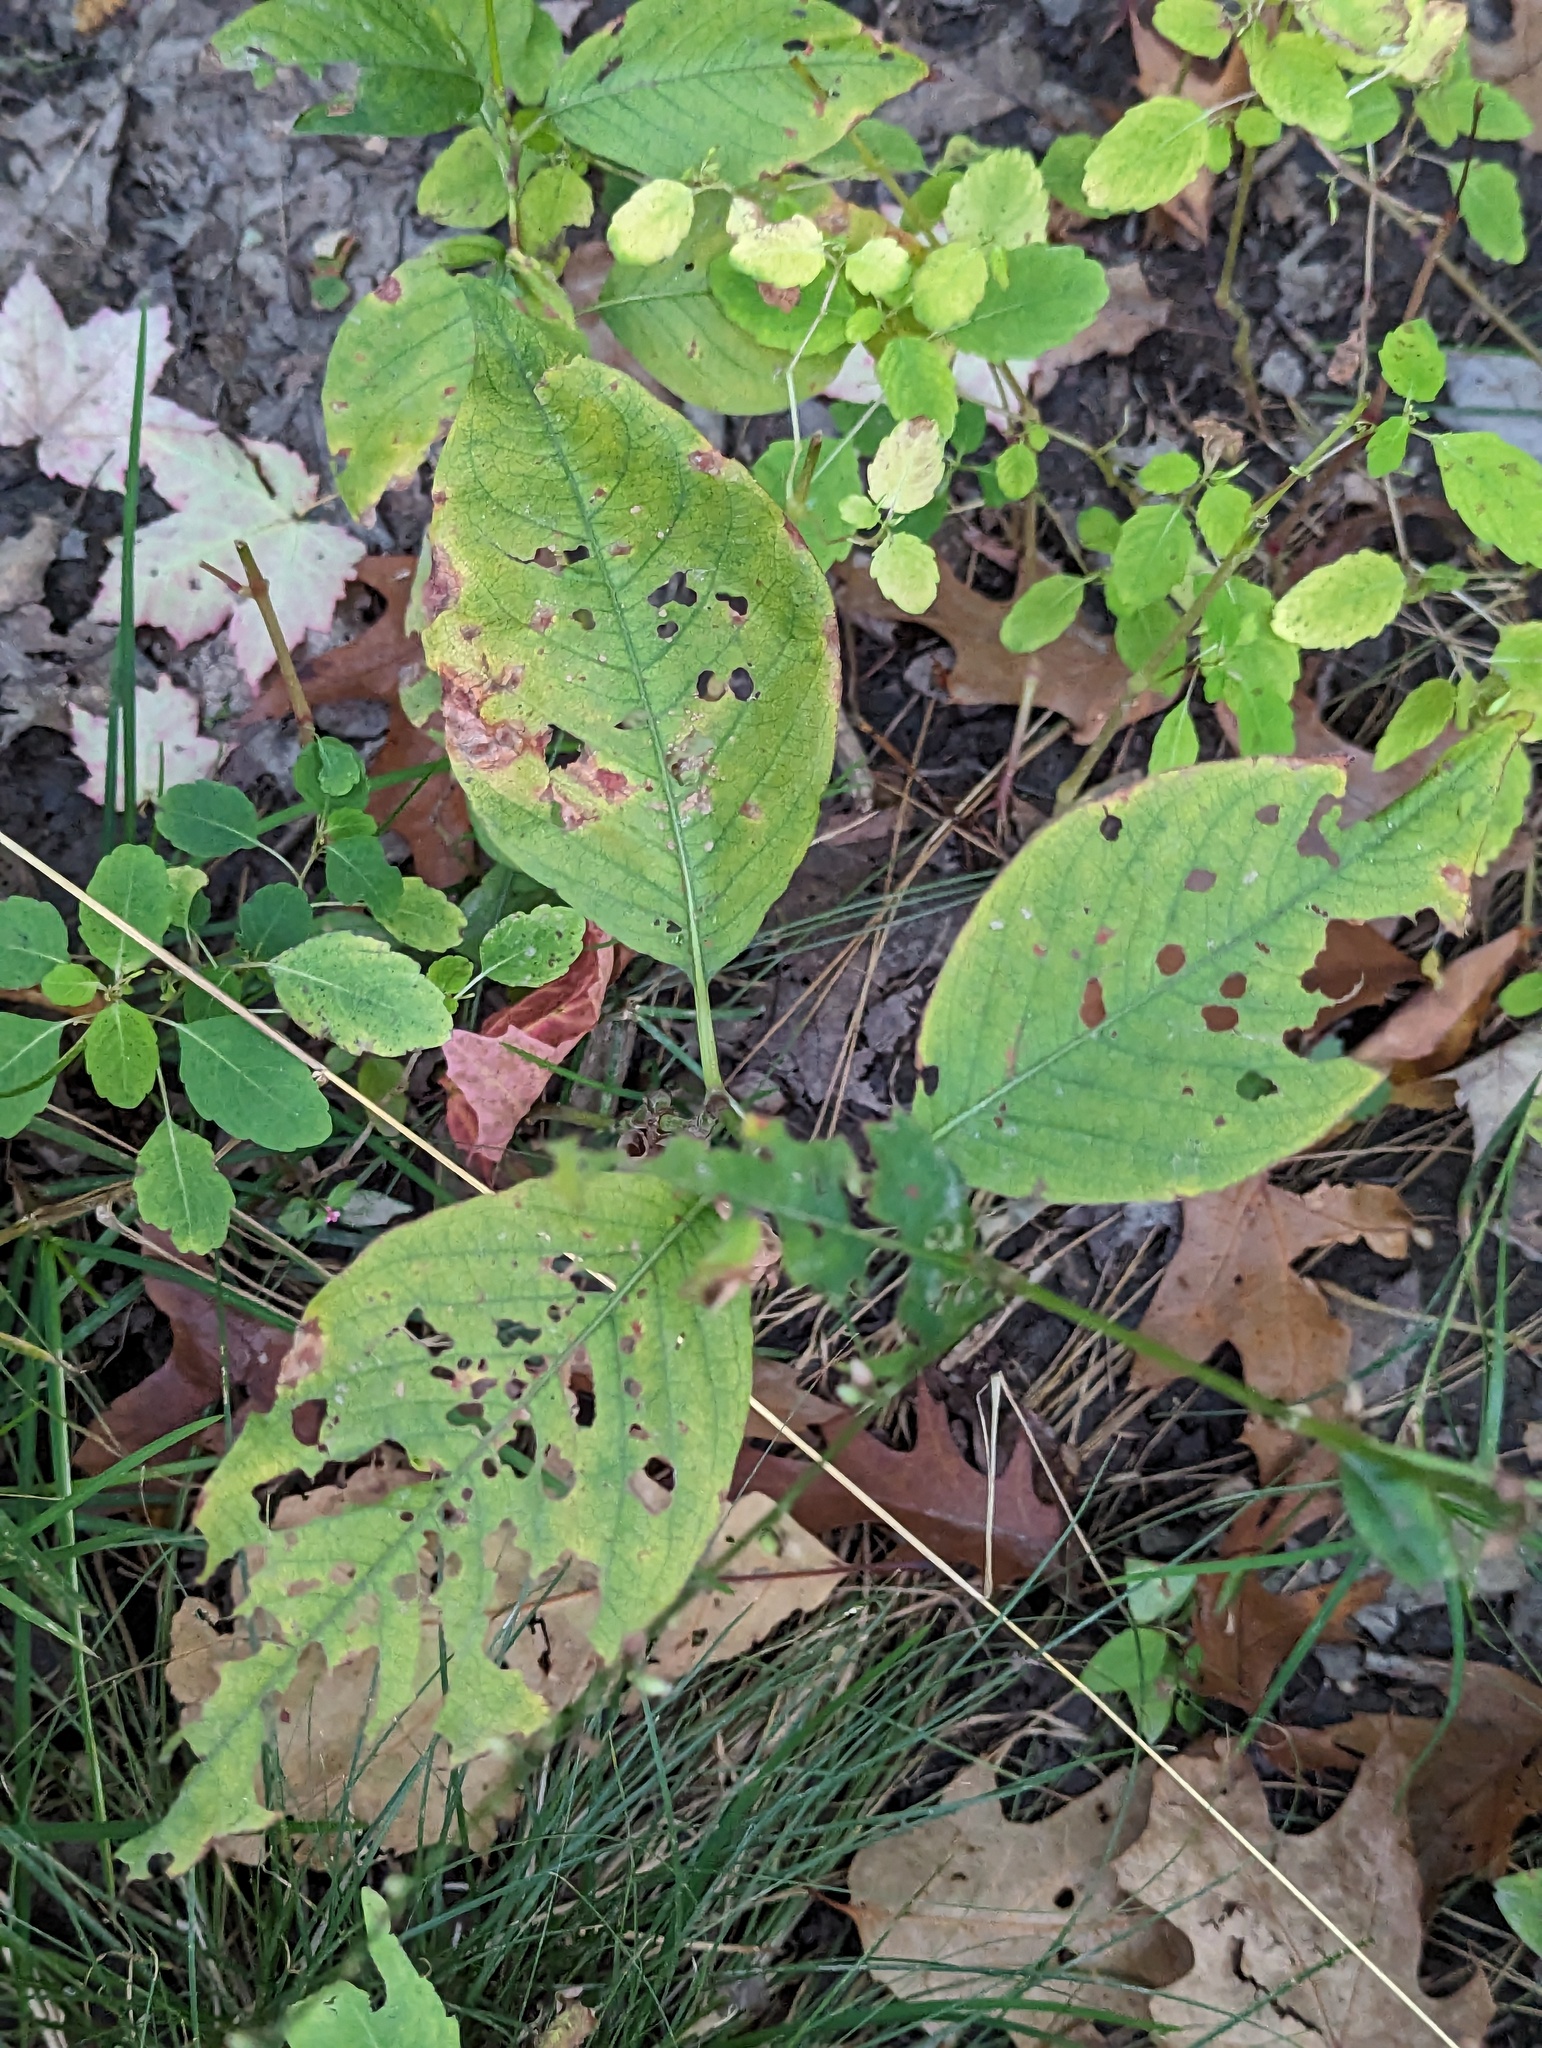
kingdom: Plantae
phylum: Tracheophyta
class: Magnoliopsida
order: Caryophyllales
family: Polygonaceae
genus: Persicaria
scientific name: Persicaria virginiana
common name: Jumpseed
